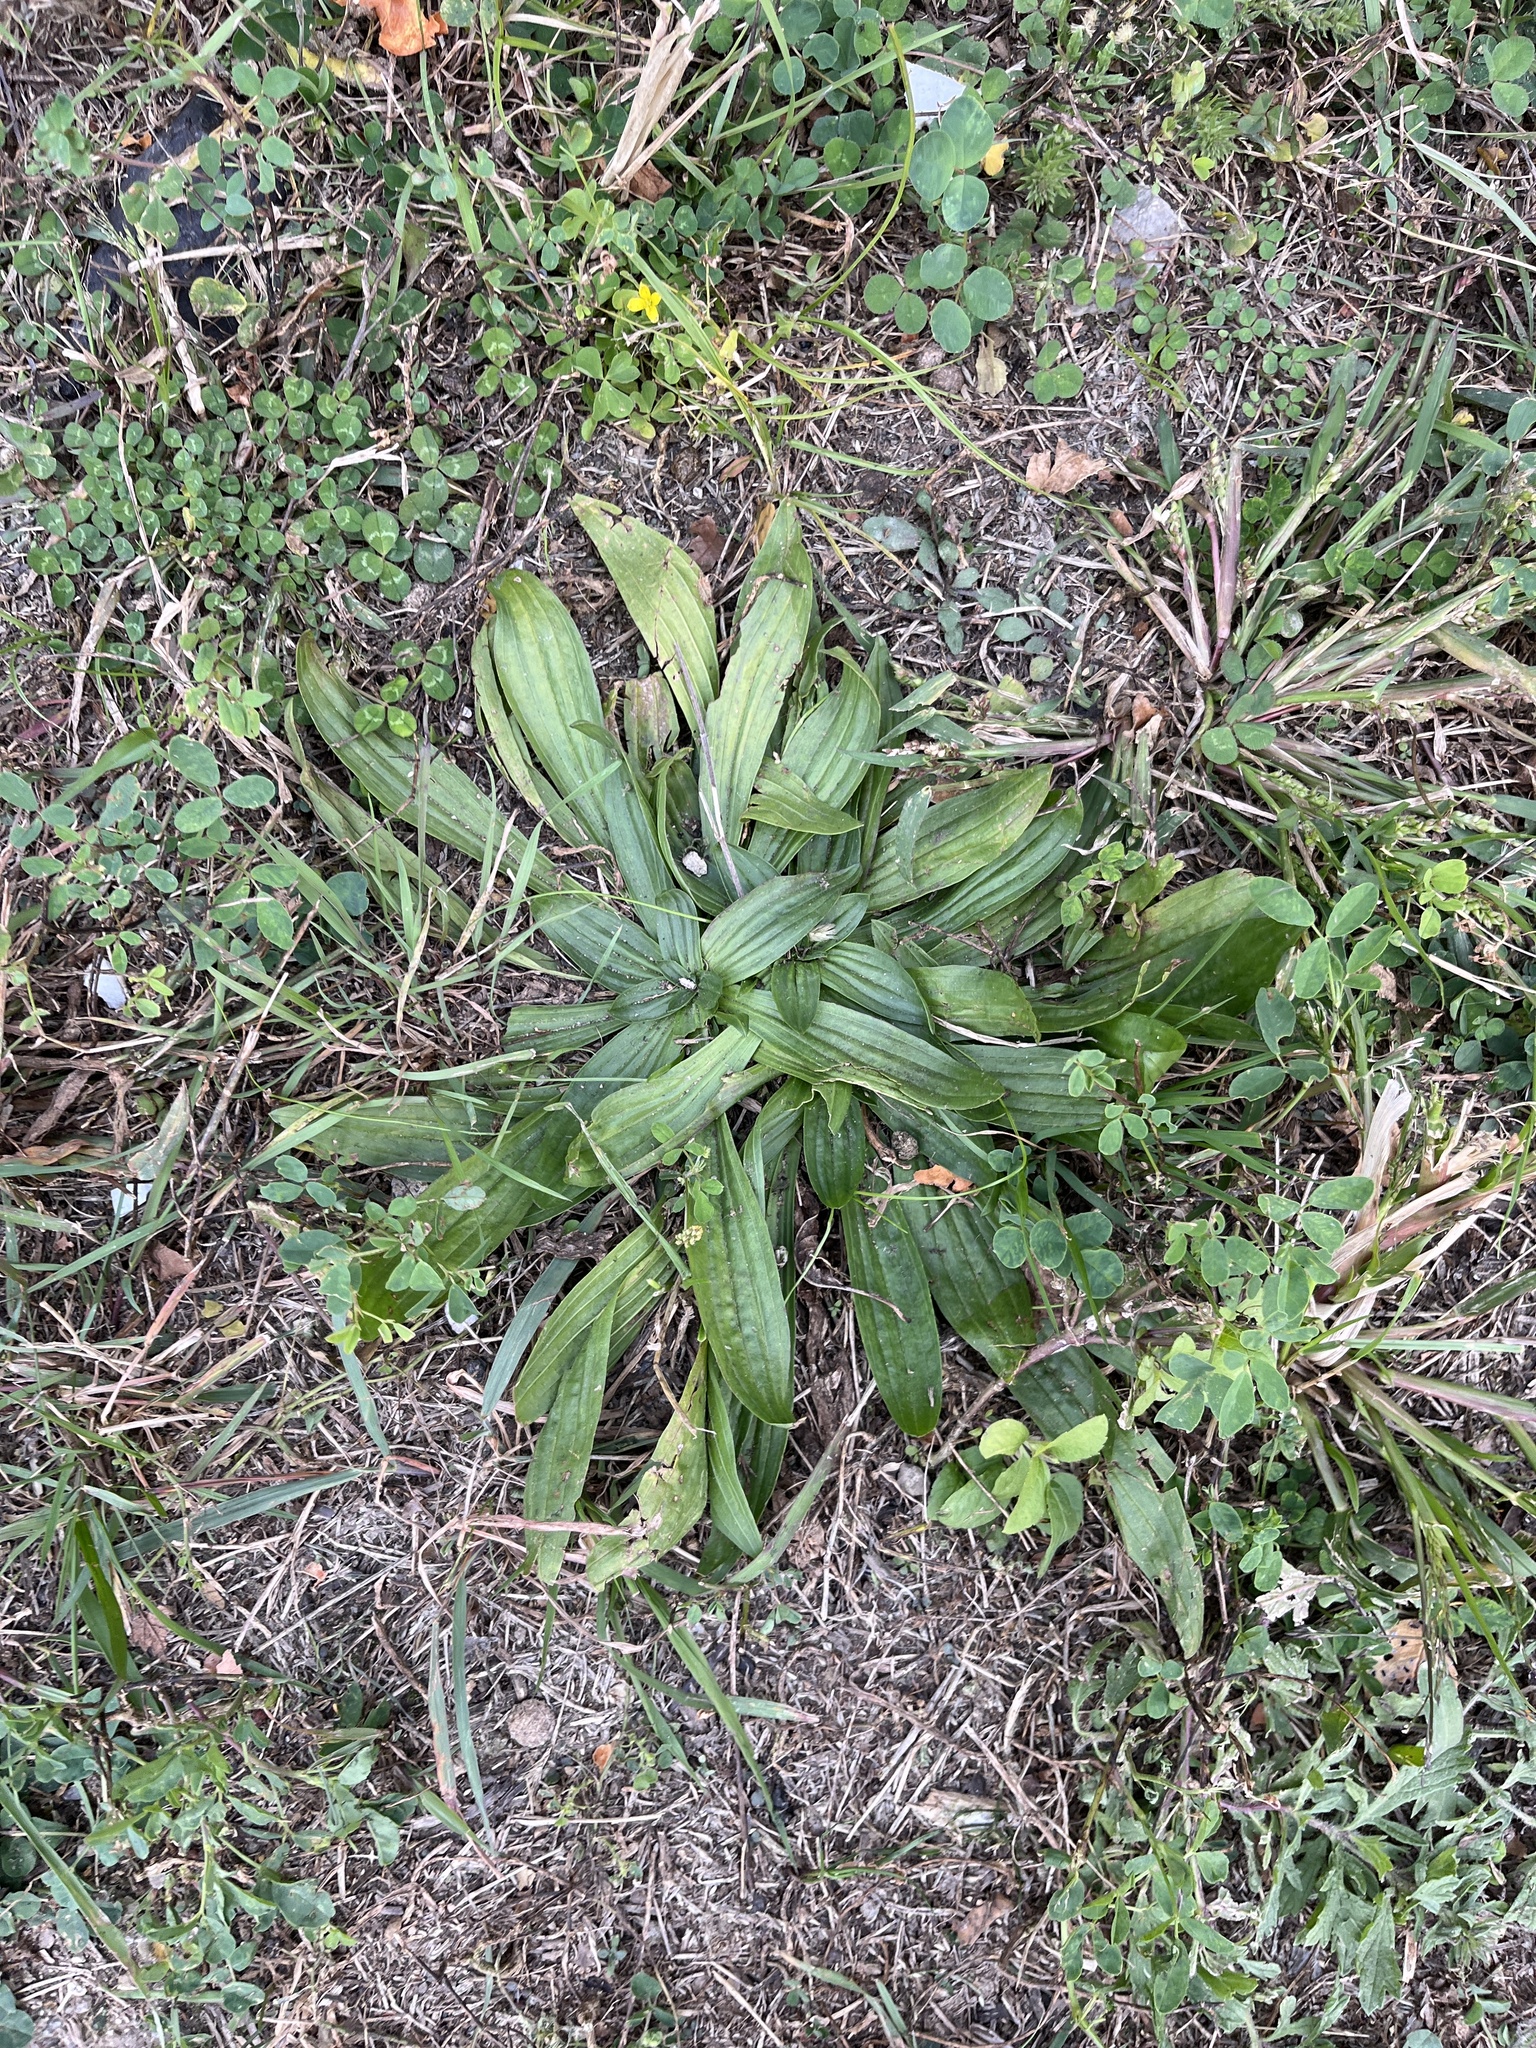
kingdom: Plantae
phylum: Tracheophyta
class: Magnoliopsida
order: Lamiales
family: Plantaginaceae
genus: Plantago
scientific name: Plantago lanceolata
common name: Ribwort plantain
